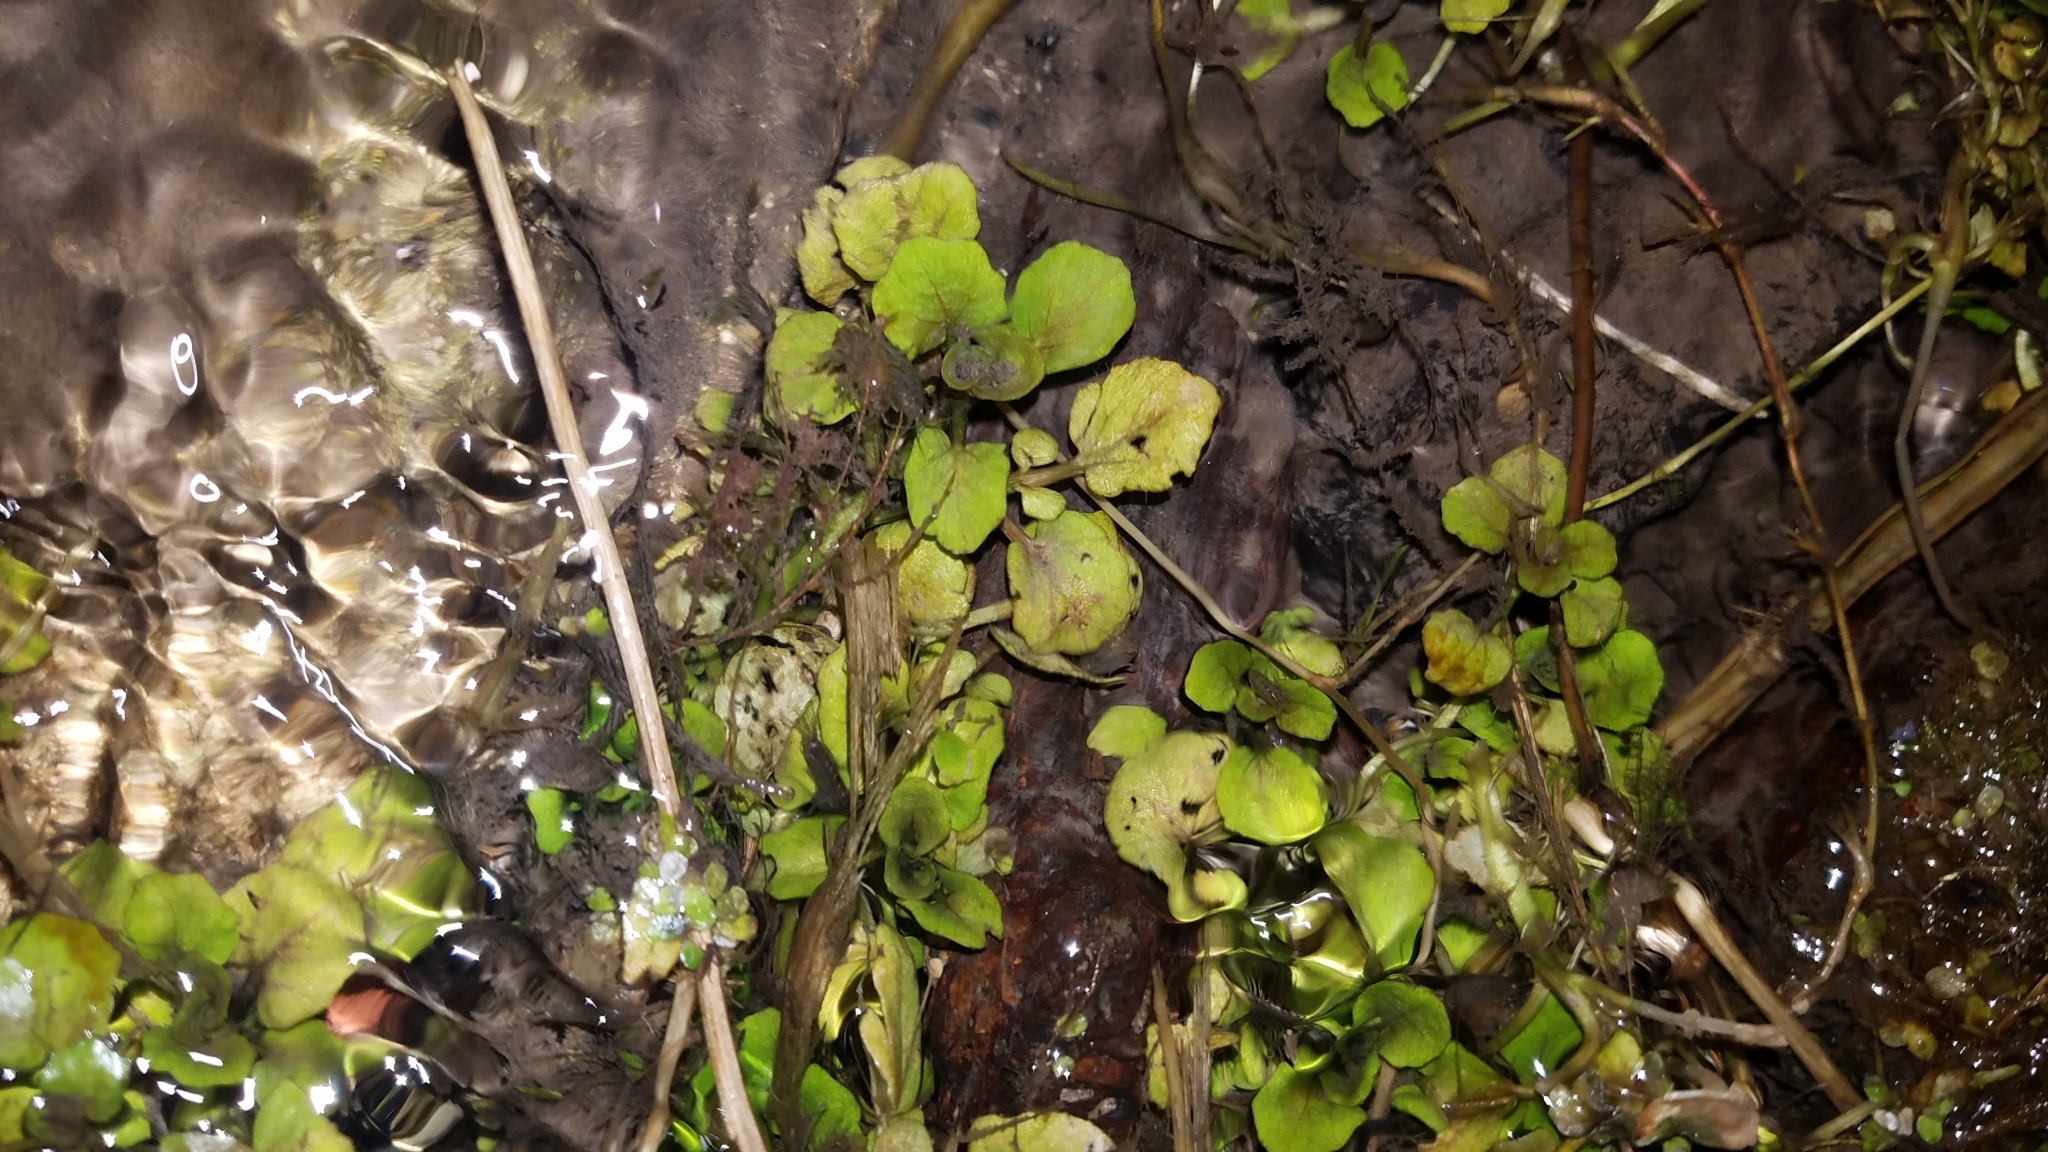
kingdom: Plantae
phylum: Tracheophyta
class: Magnoliopsida
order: Brassicales
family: Brassicaceae
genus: Nasturtium
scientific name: Nasturtium officinale
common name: Watercress
